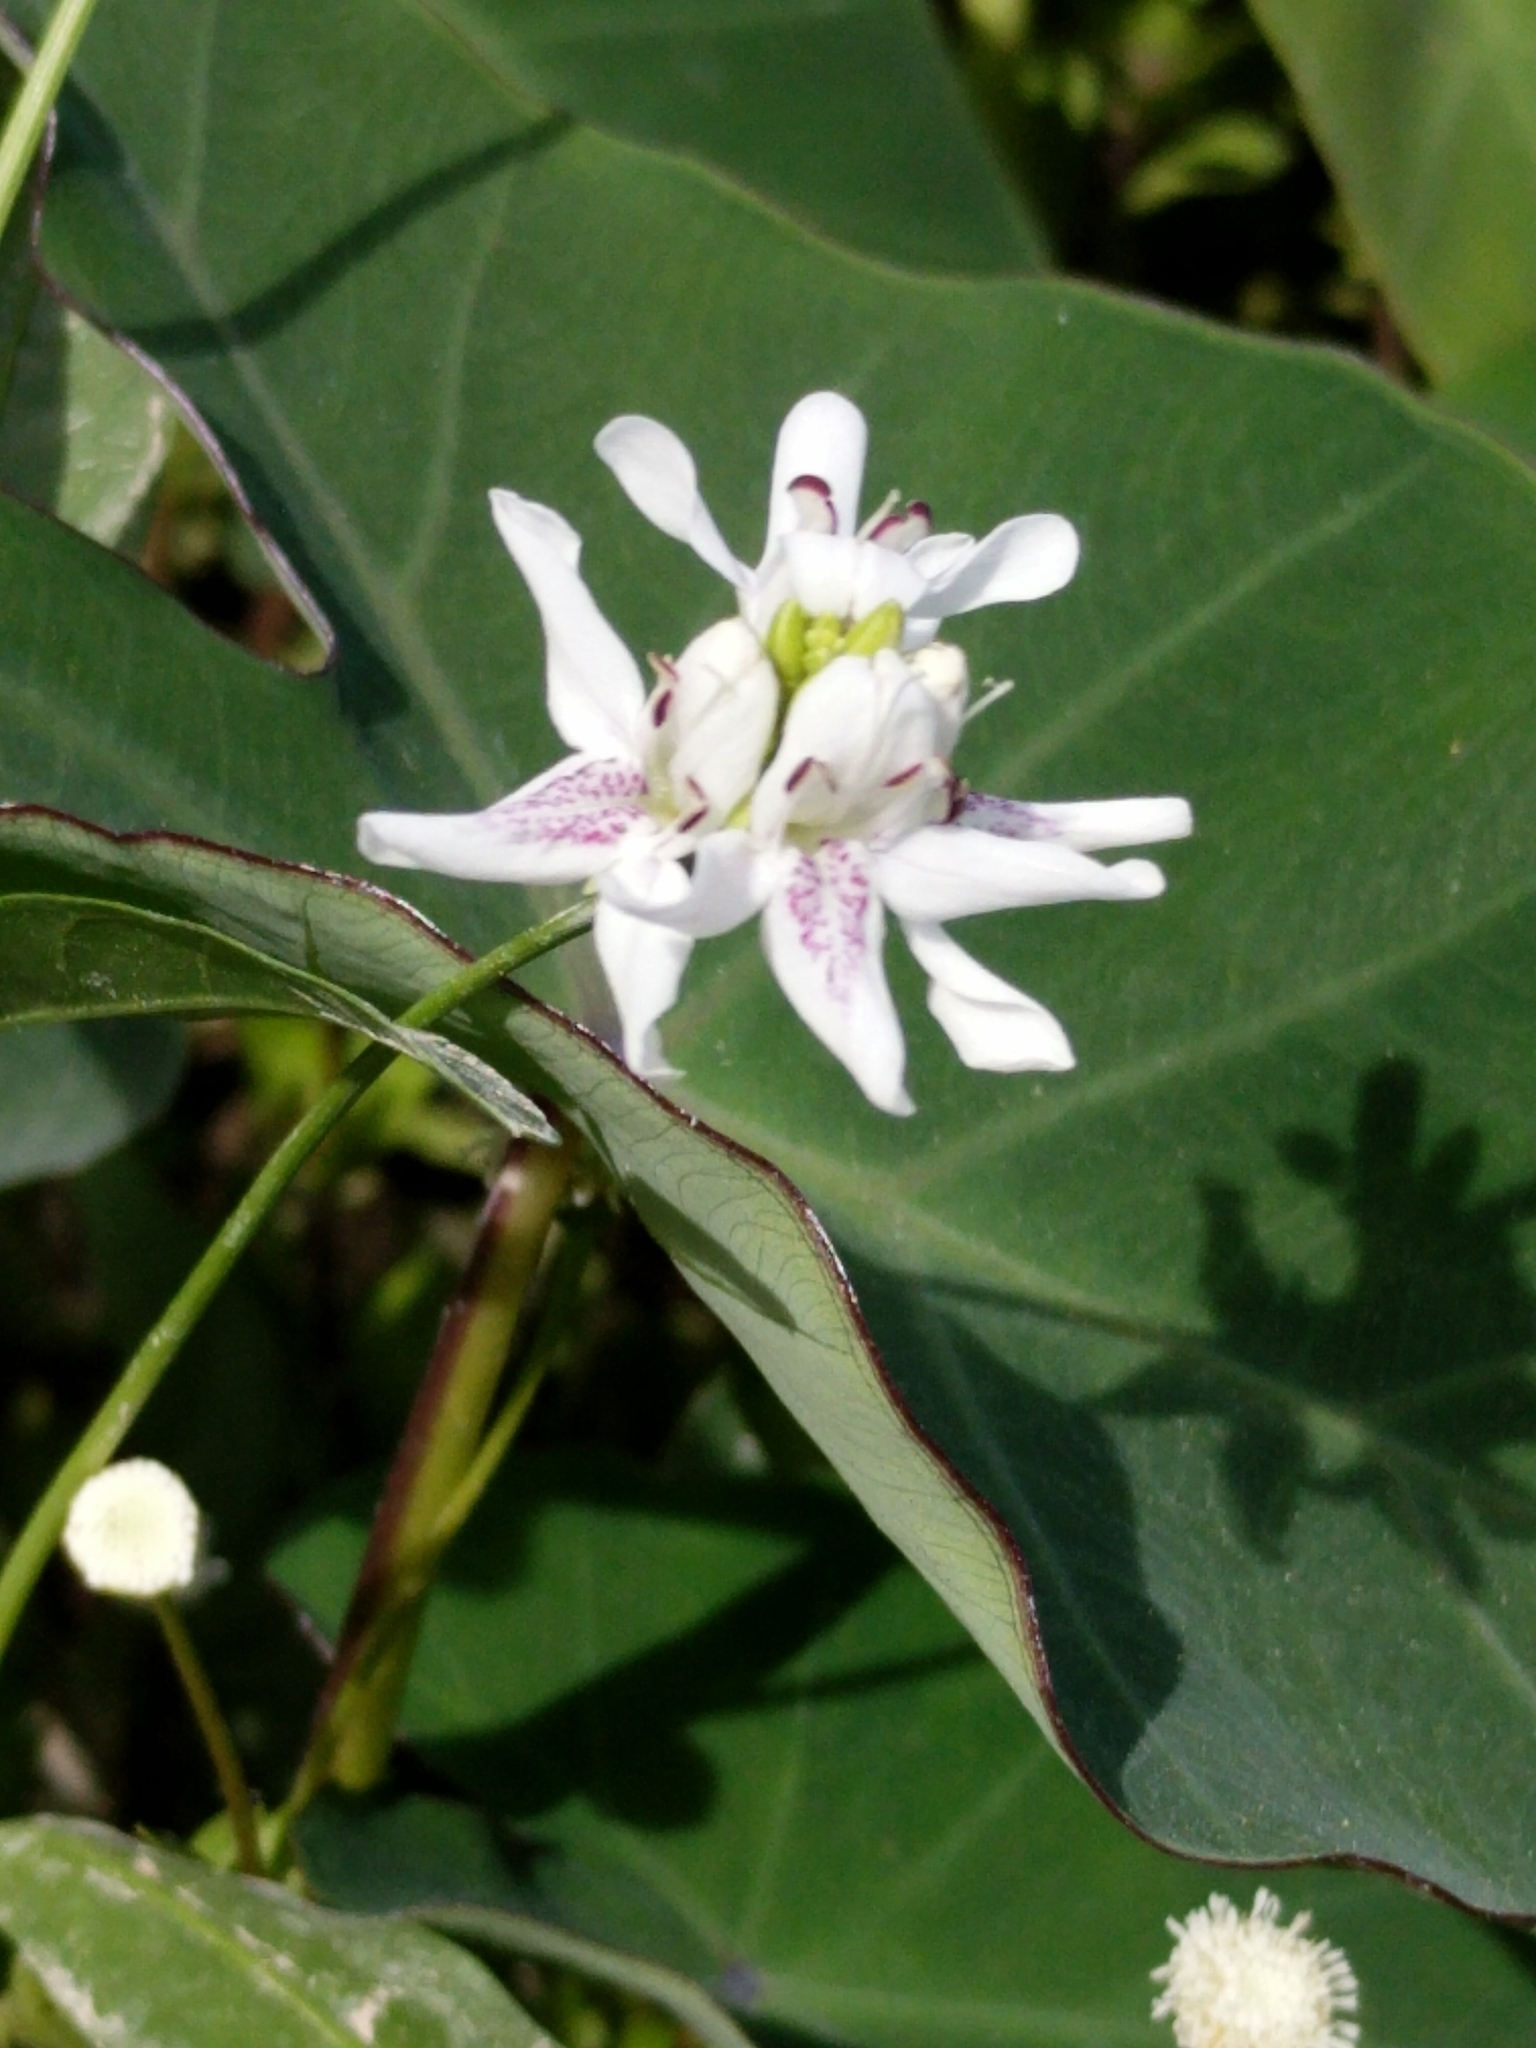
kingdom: Plantae
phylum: Tracheophyta
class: Magnoliopsida
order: Lamiales
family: Acanthaceae
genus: Dianthera
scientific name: Dianthera americana
